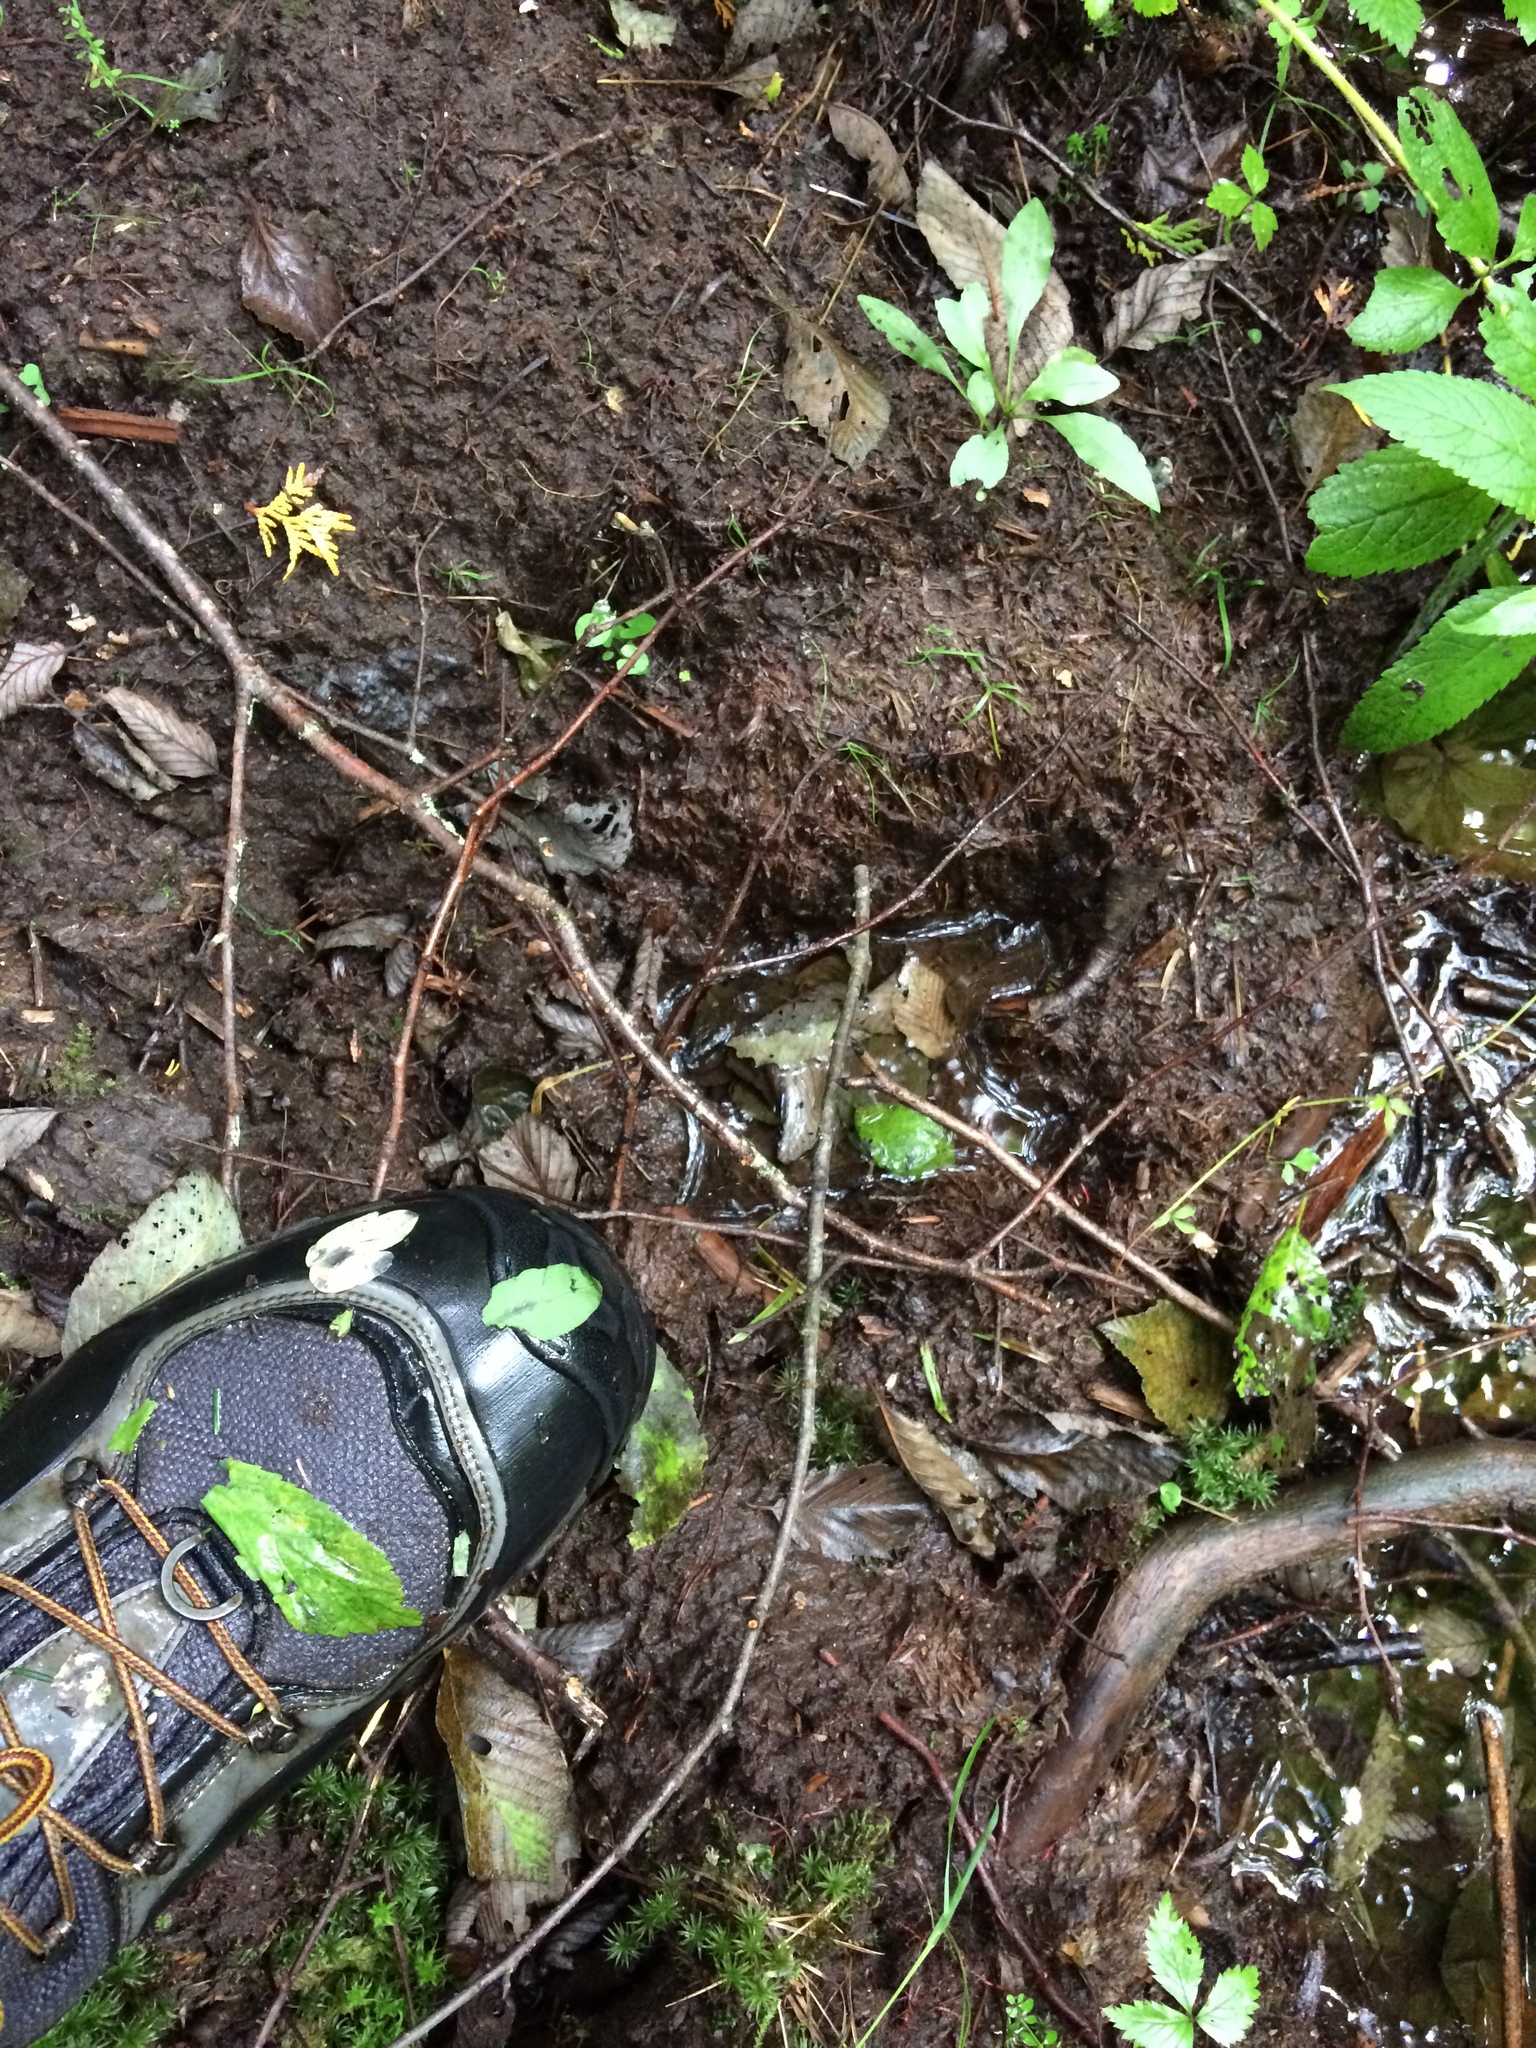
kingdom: Animalia
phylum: Chordata
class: Mammalia
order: Artiodactyla
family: Cervidae
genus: Alces
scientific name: Alces alces
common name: Moose
